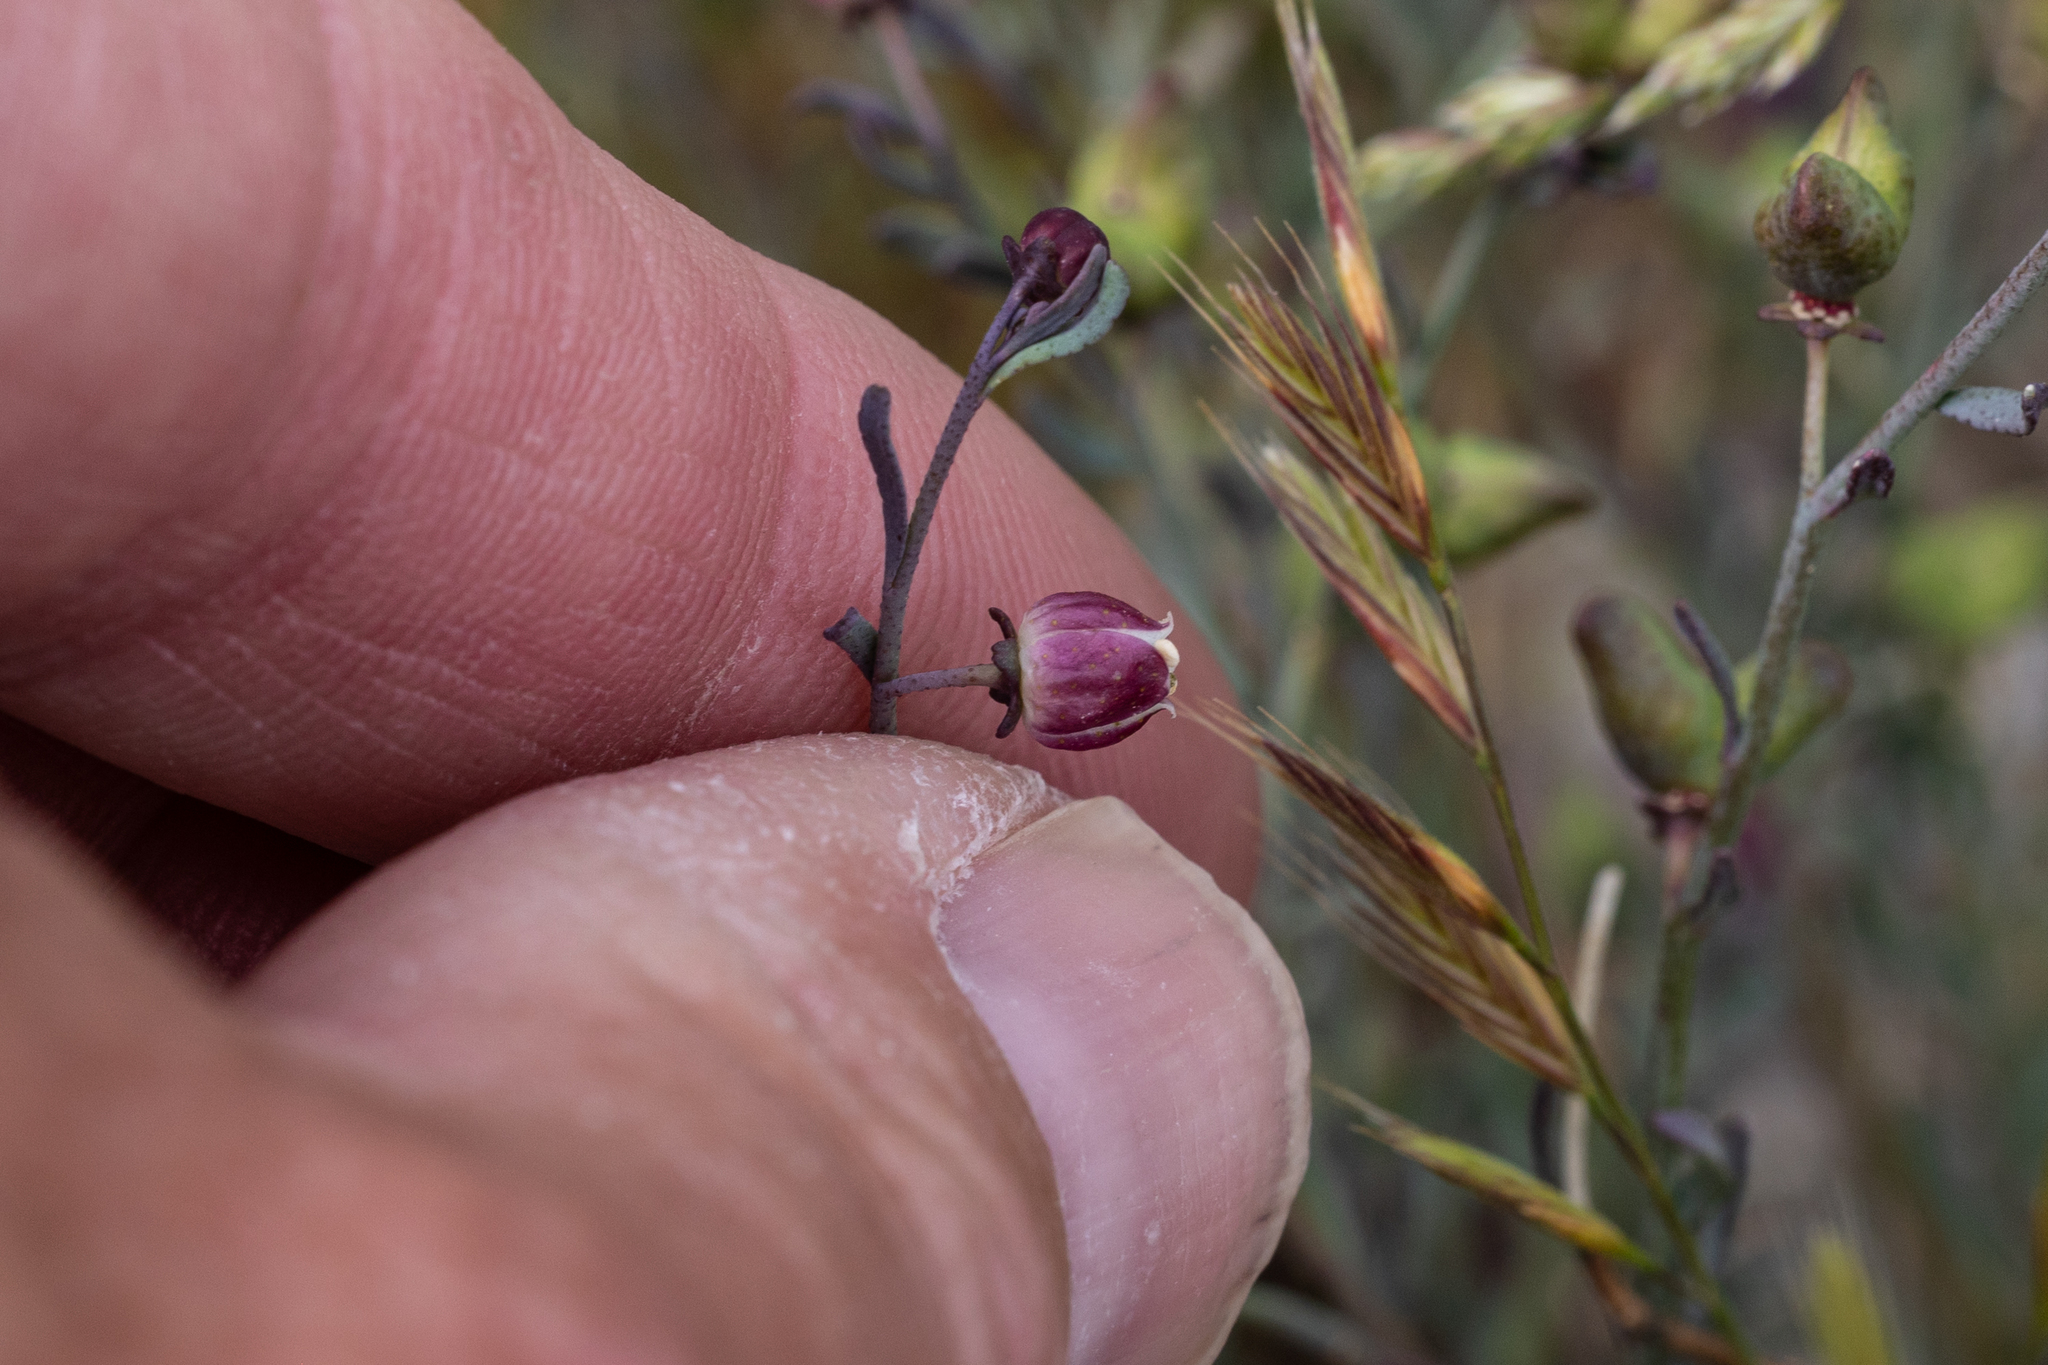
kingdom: Plantae
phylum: Tracheophyta
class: Magnoliopsida
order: Sapindales
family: Rutaceae
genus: Thamnosma
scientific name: Thamnosma texana
